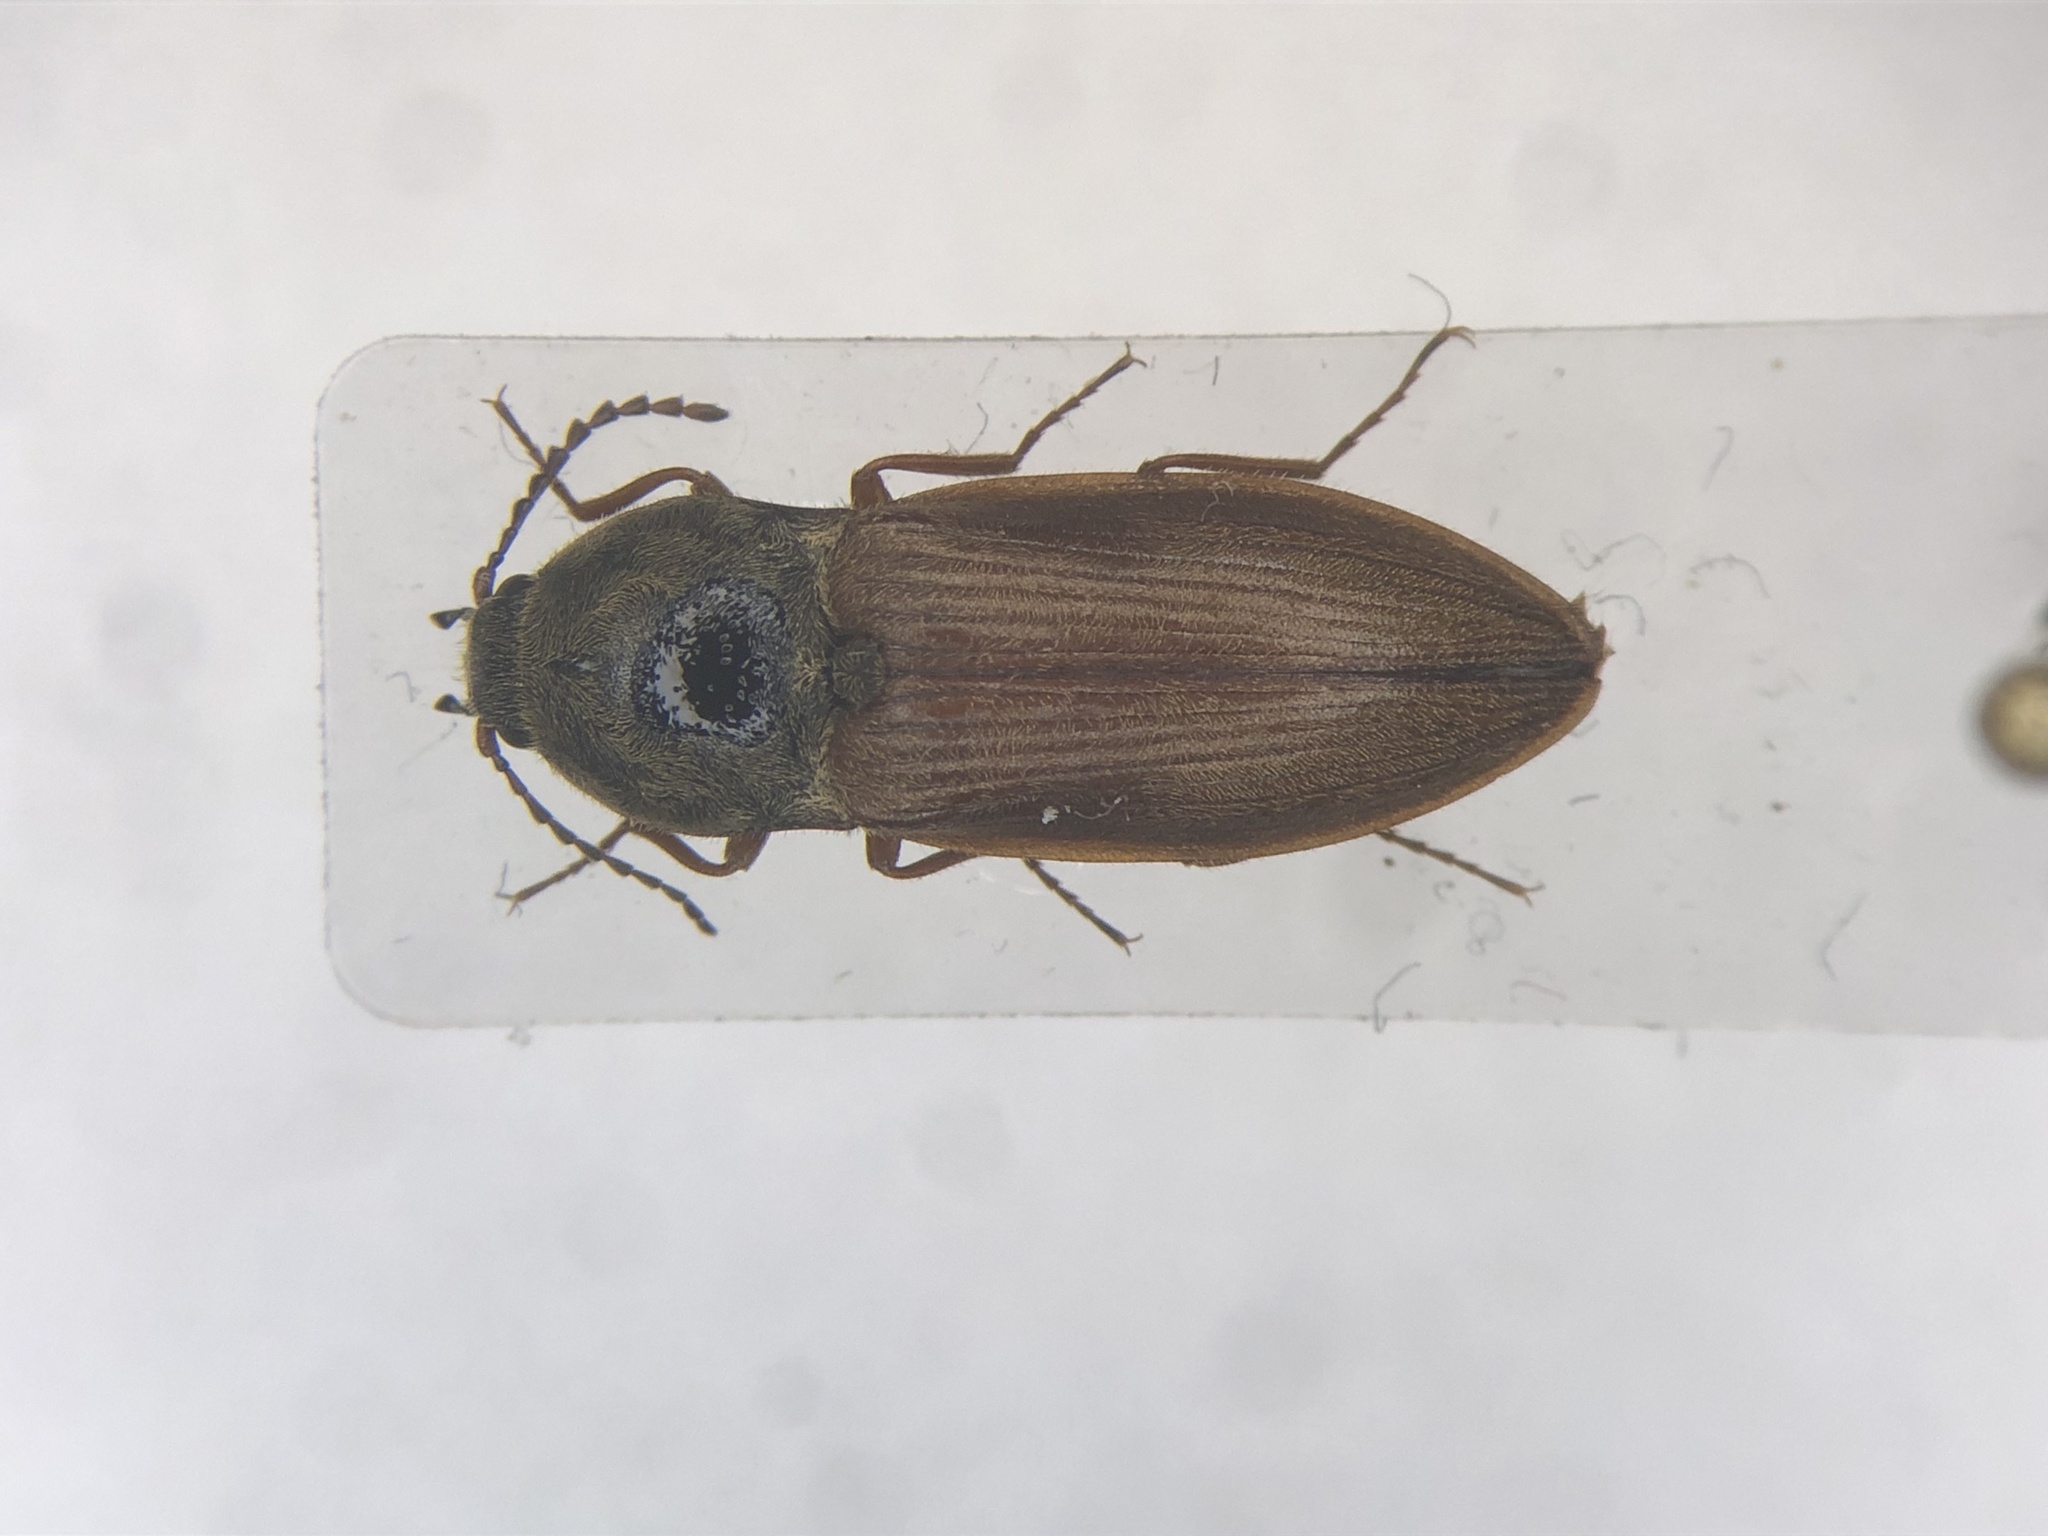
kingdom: Animalia
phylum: Arthropoda
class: Insecta
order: Coleoptera
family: Elateridae
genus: Prosternon
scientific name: Prosternon medianum
